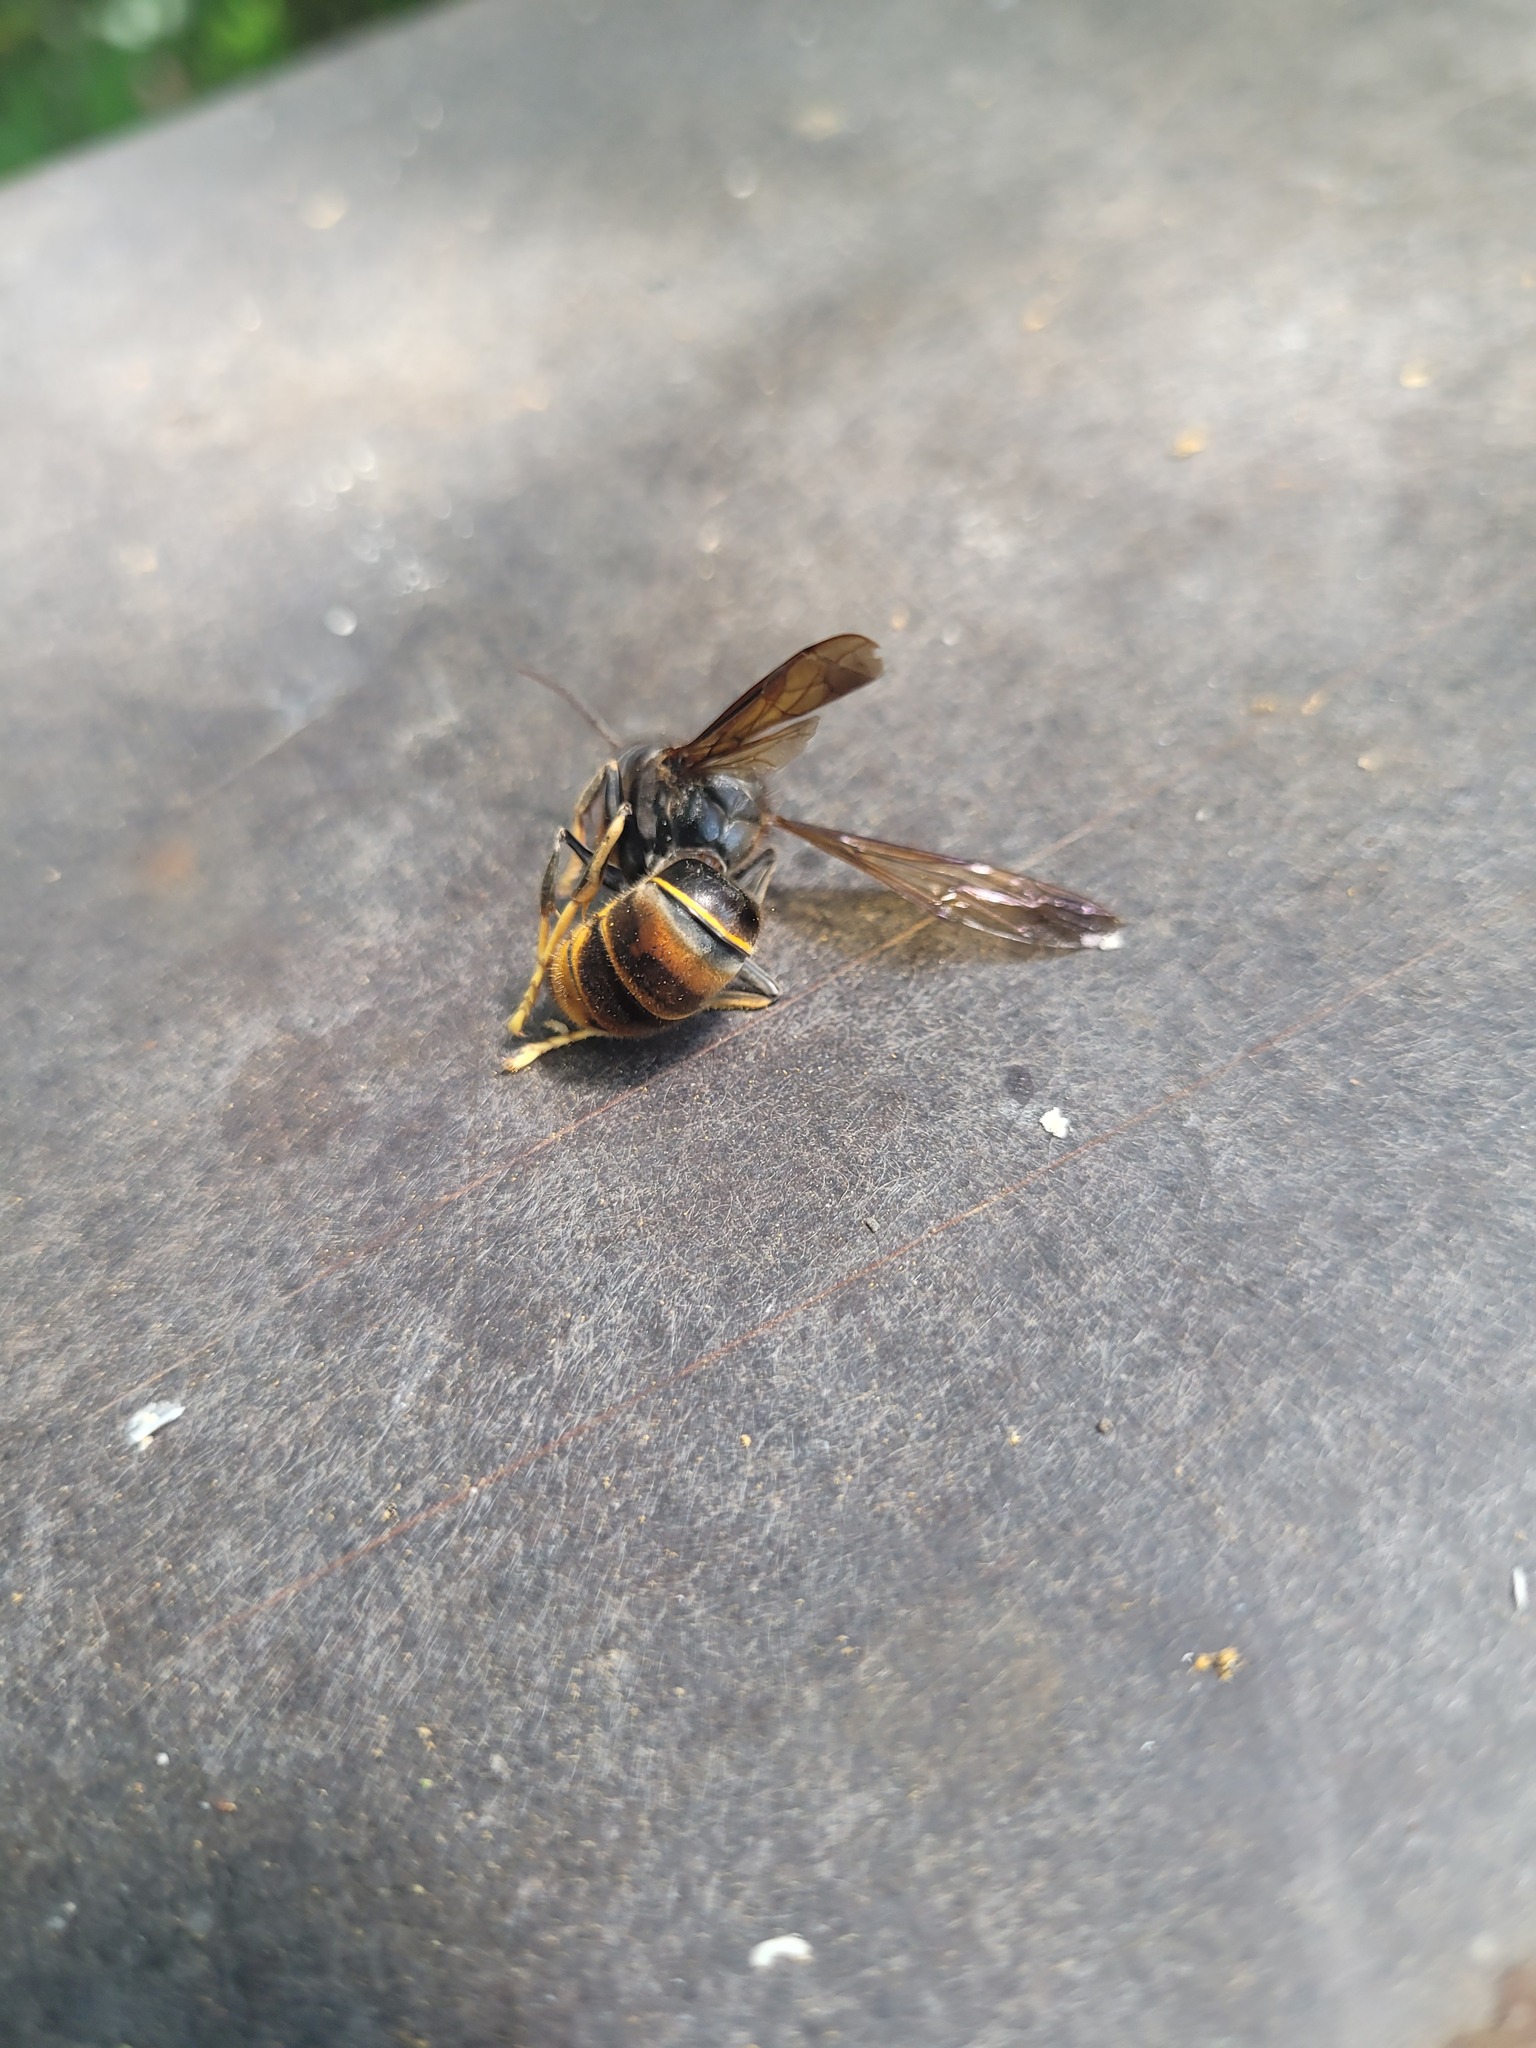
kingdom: Animalia
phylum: Arthropoda
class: Insecta
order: Hymenoptera
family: Vespidae
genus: Vespa
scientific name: Vespa velutina
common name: Asian hornet
